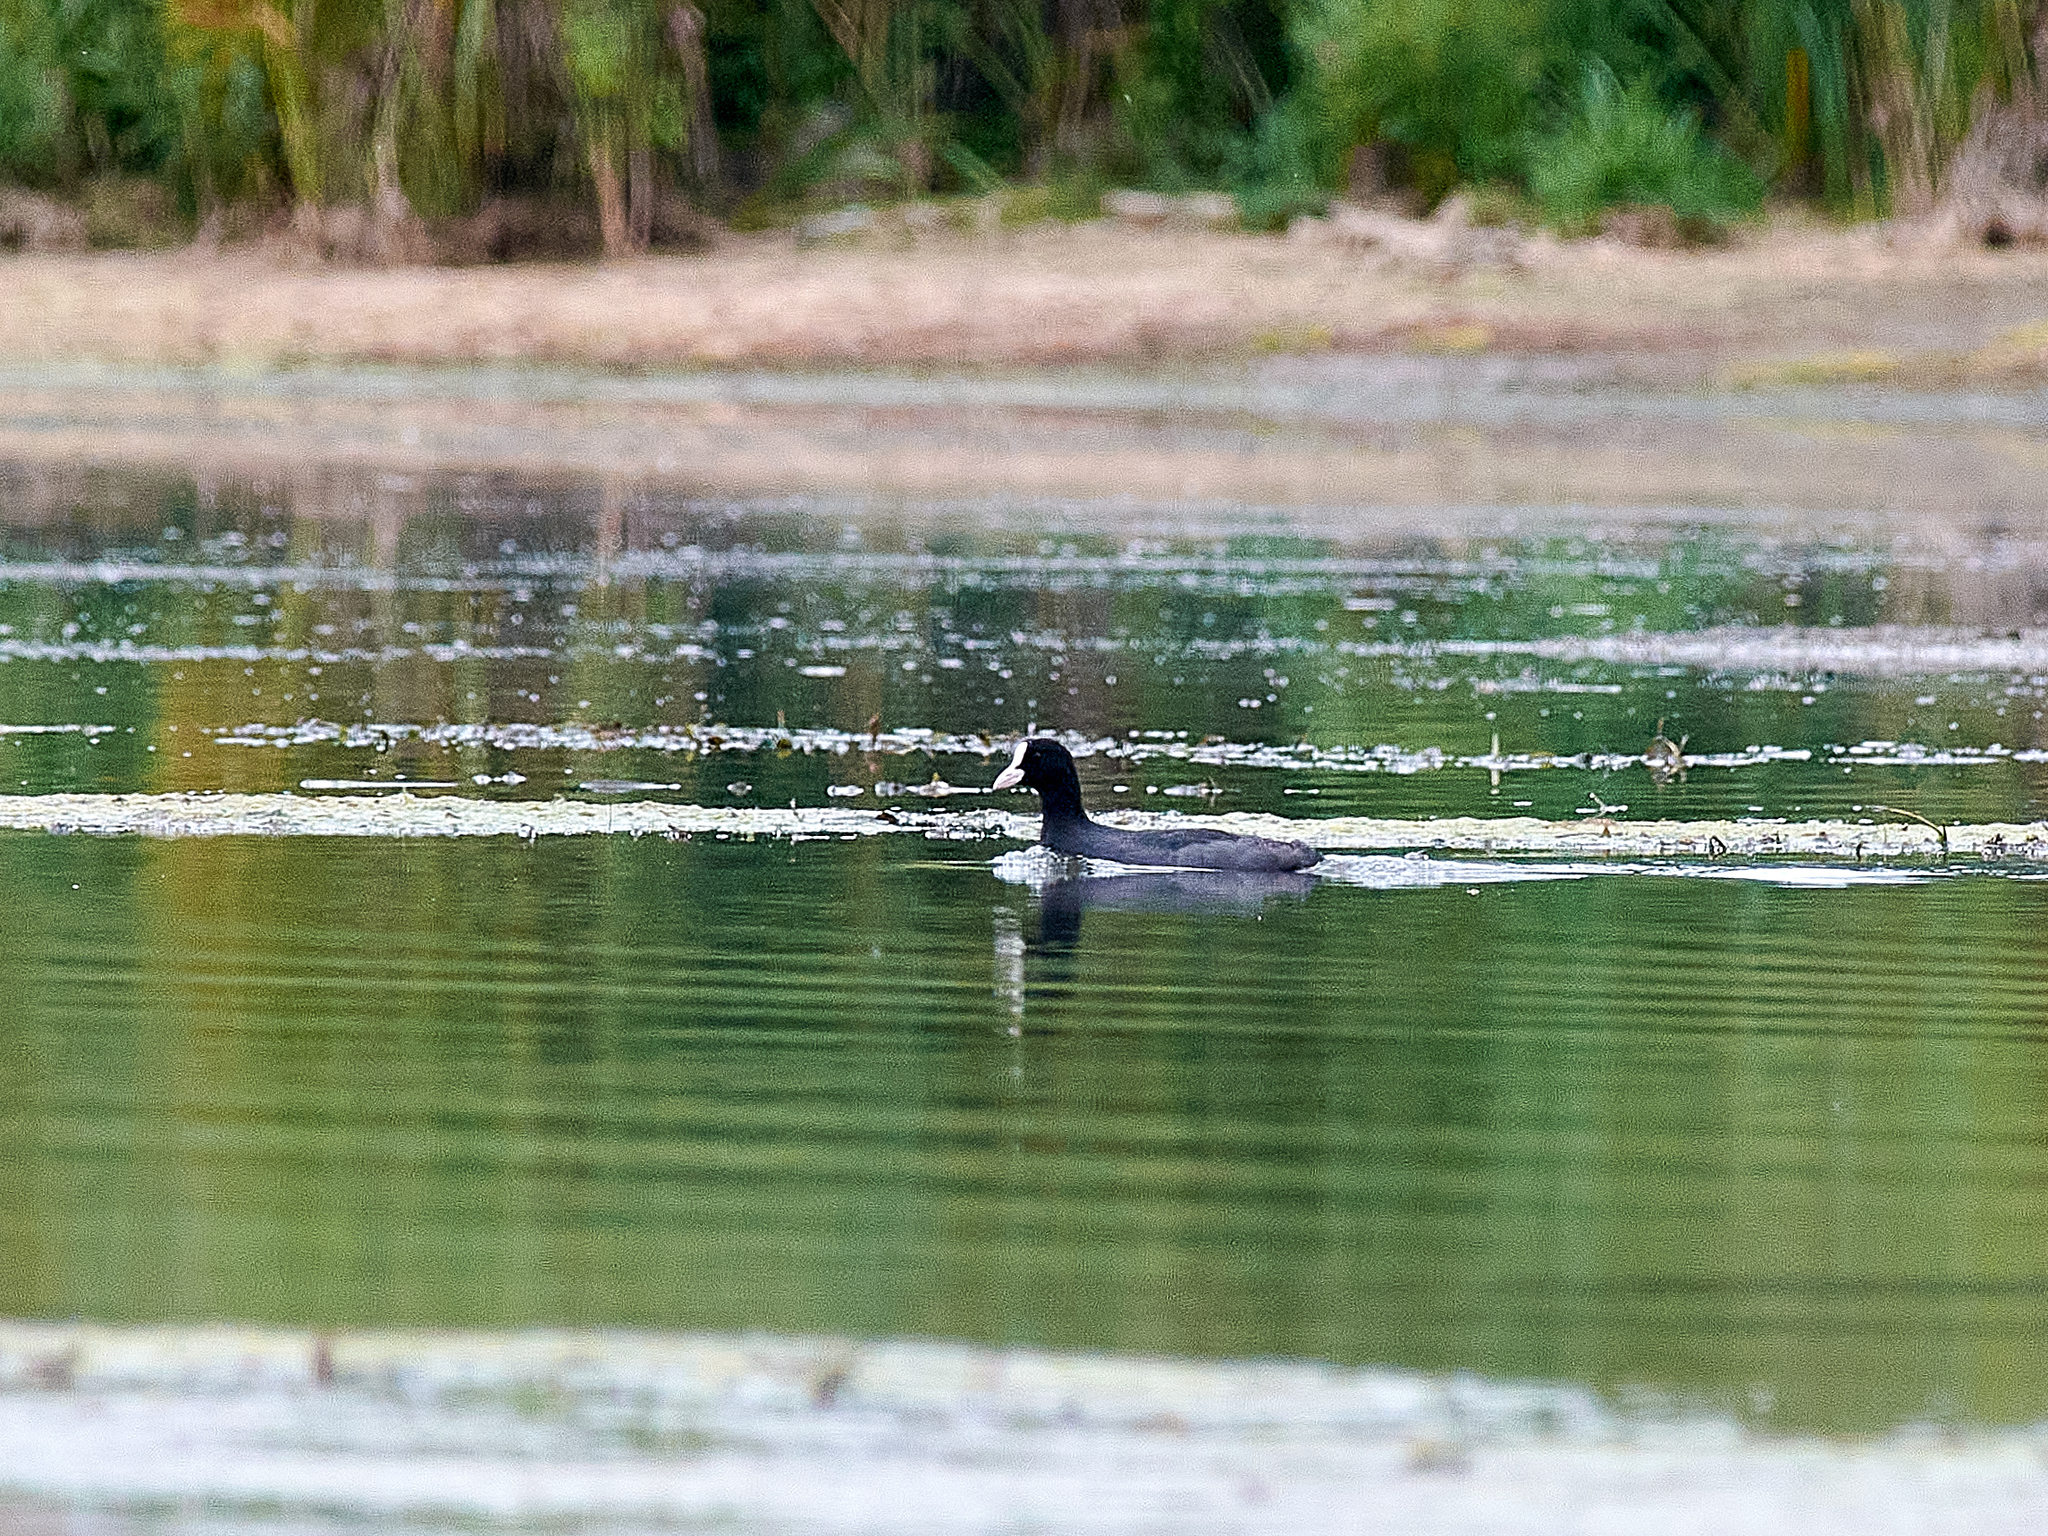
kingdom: Animalia
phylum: Chordata
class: Aves
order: Gruiformes
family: Rallidae
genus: Fulica
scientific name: Fulica atra
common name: Eurasian coot
